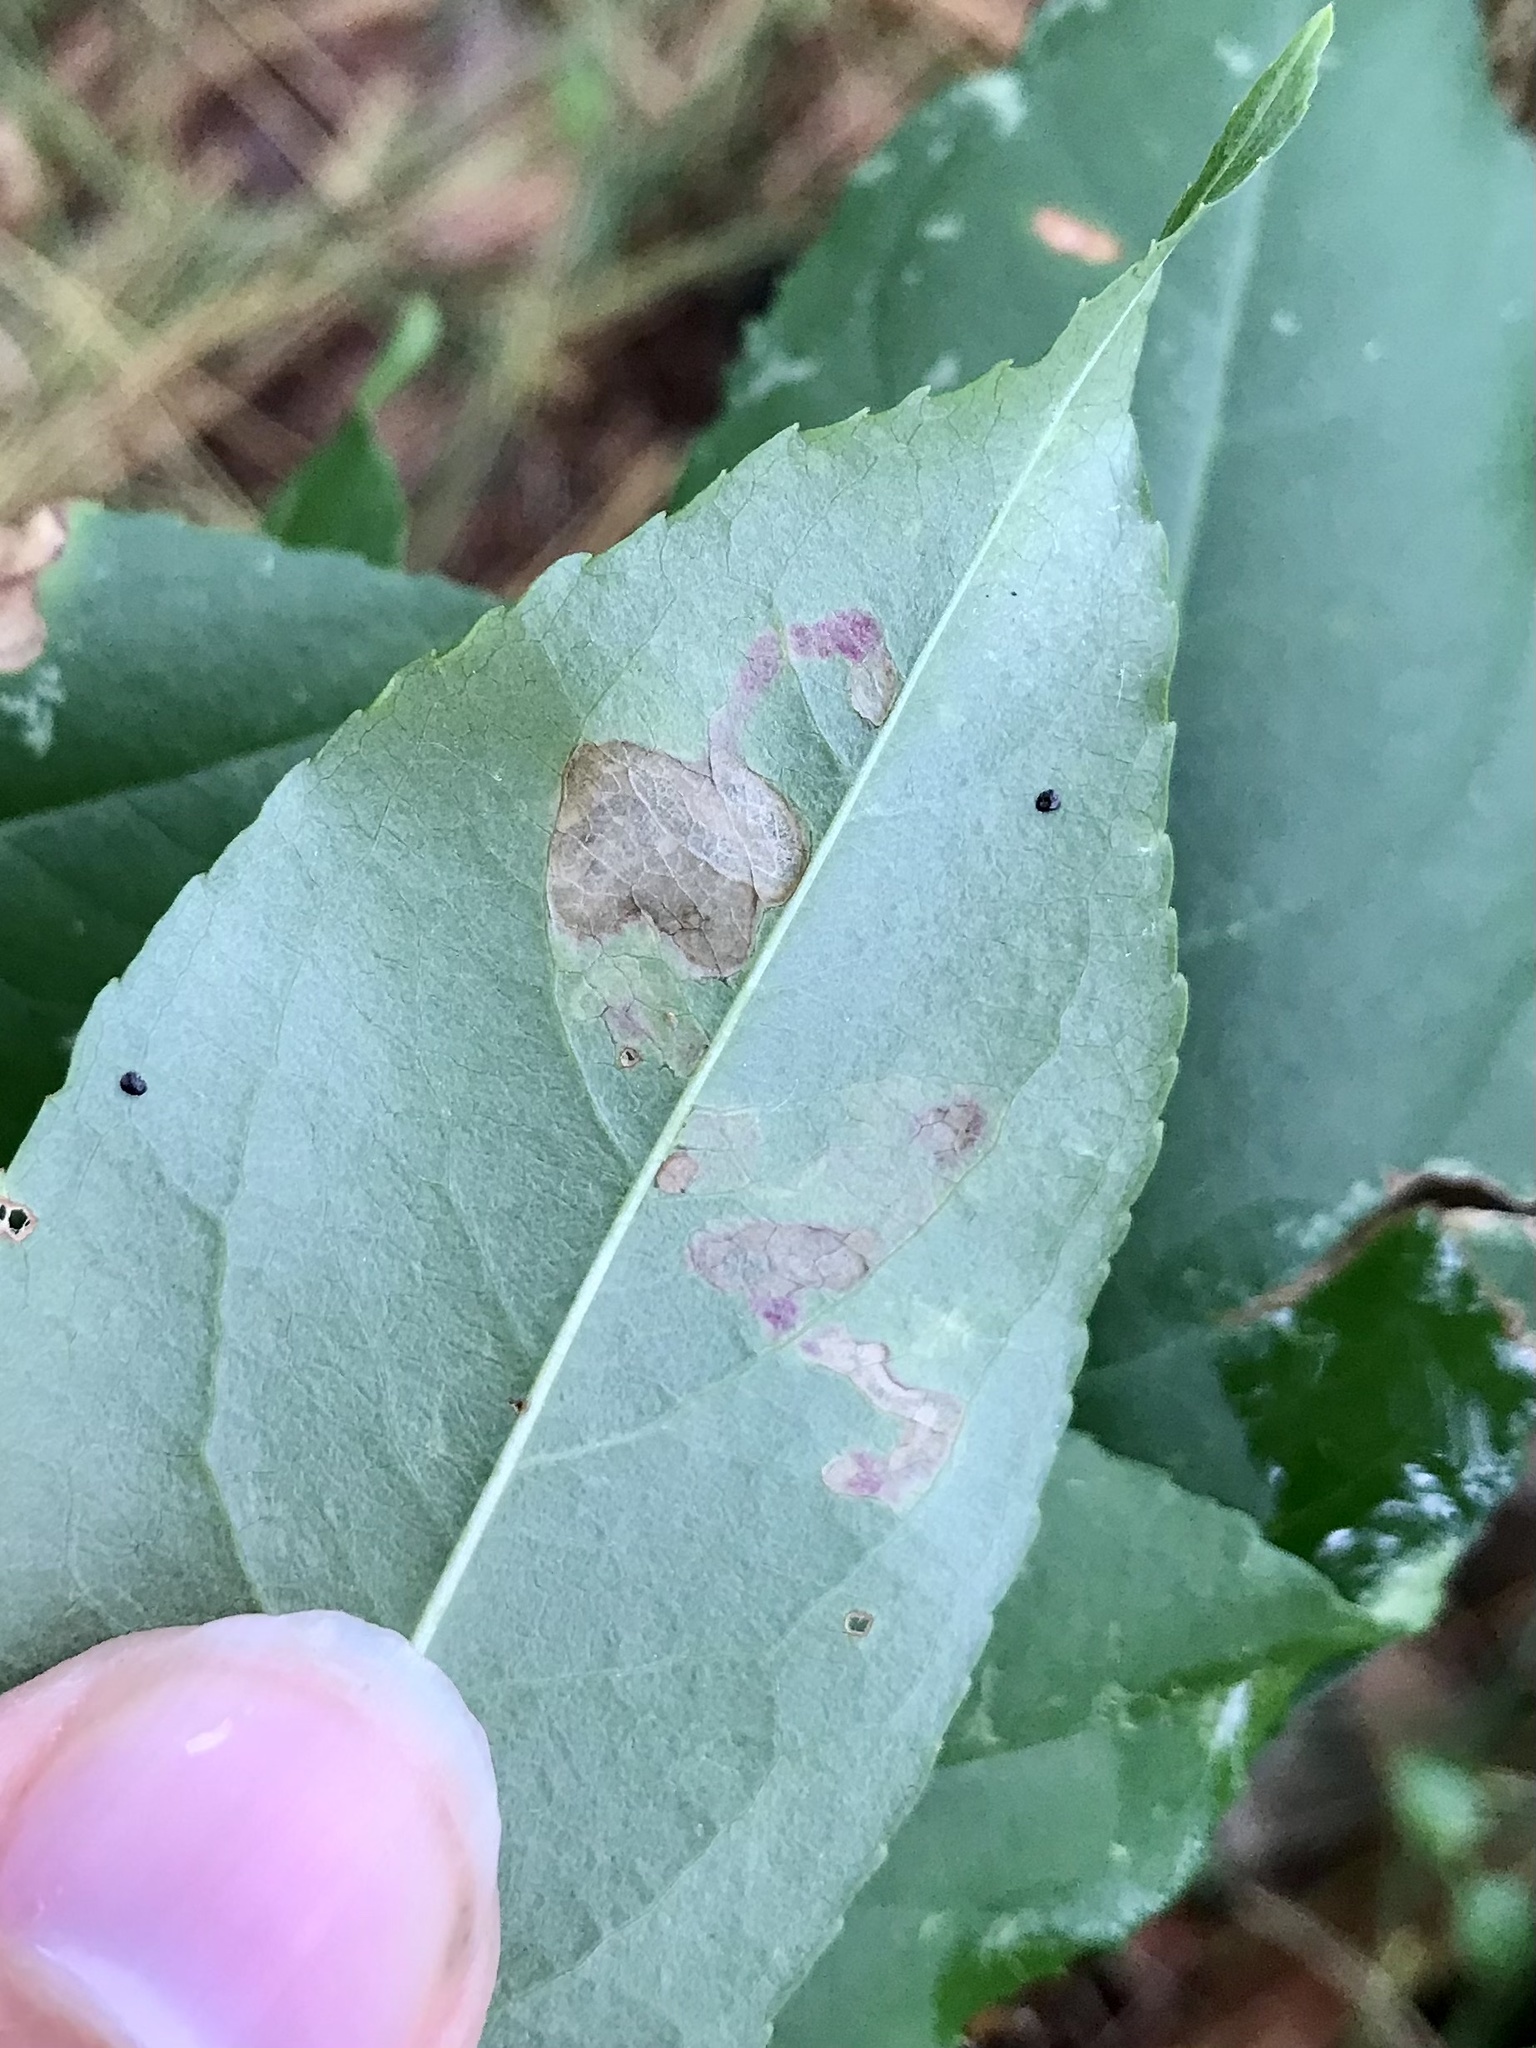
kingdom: Animalia
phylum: Arthropoda
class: Insecta
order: Lepidoptera
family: Nepticulidae
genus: Stigmella
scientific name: Stigmella prunifoliella
